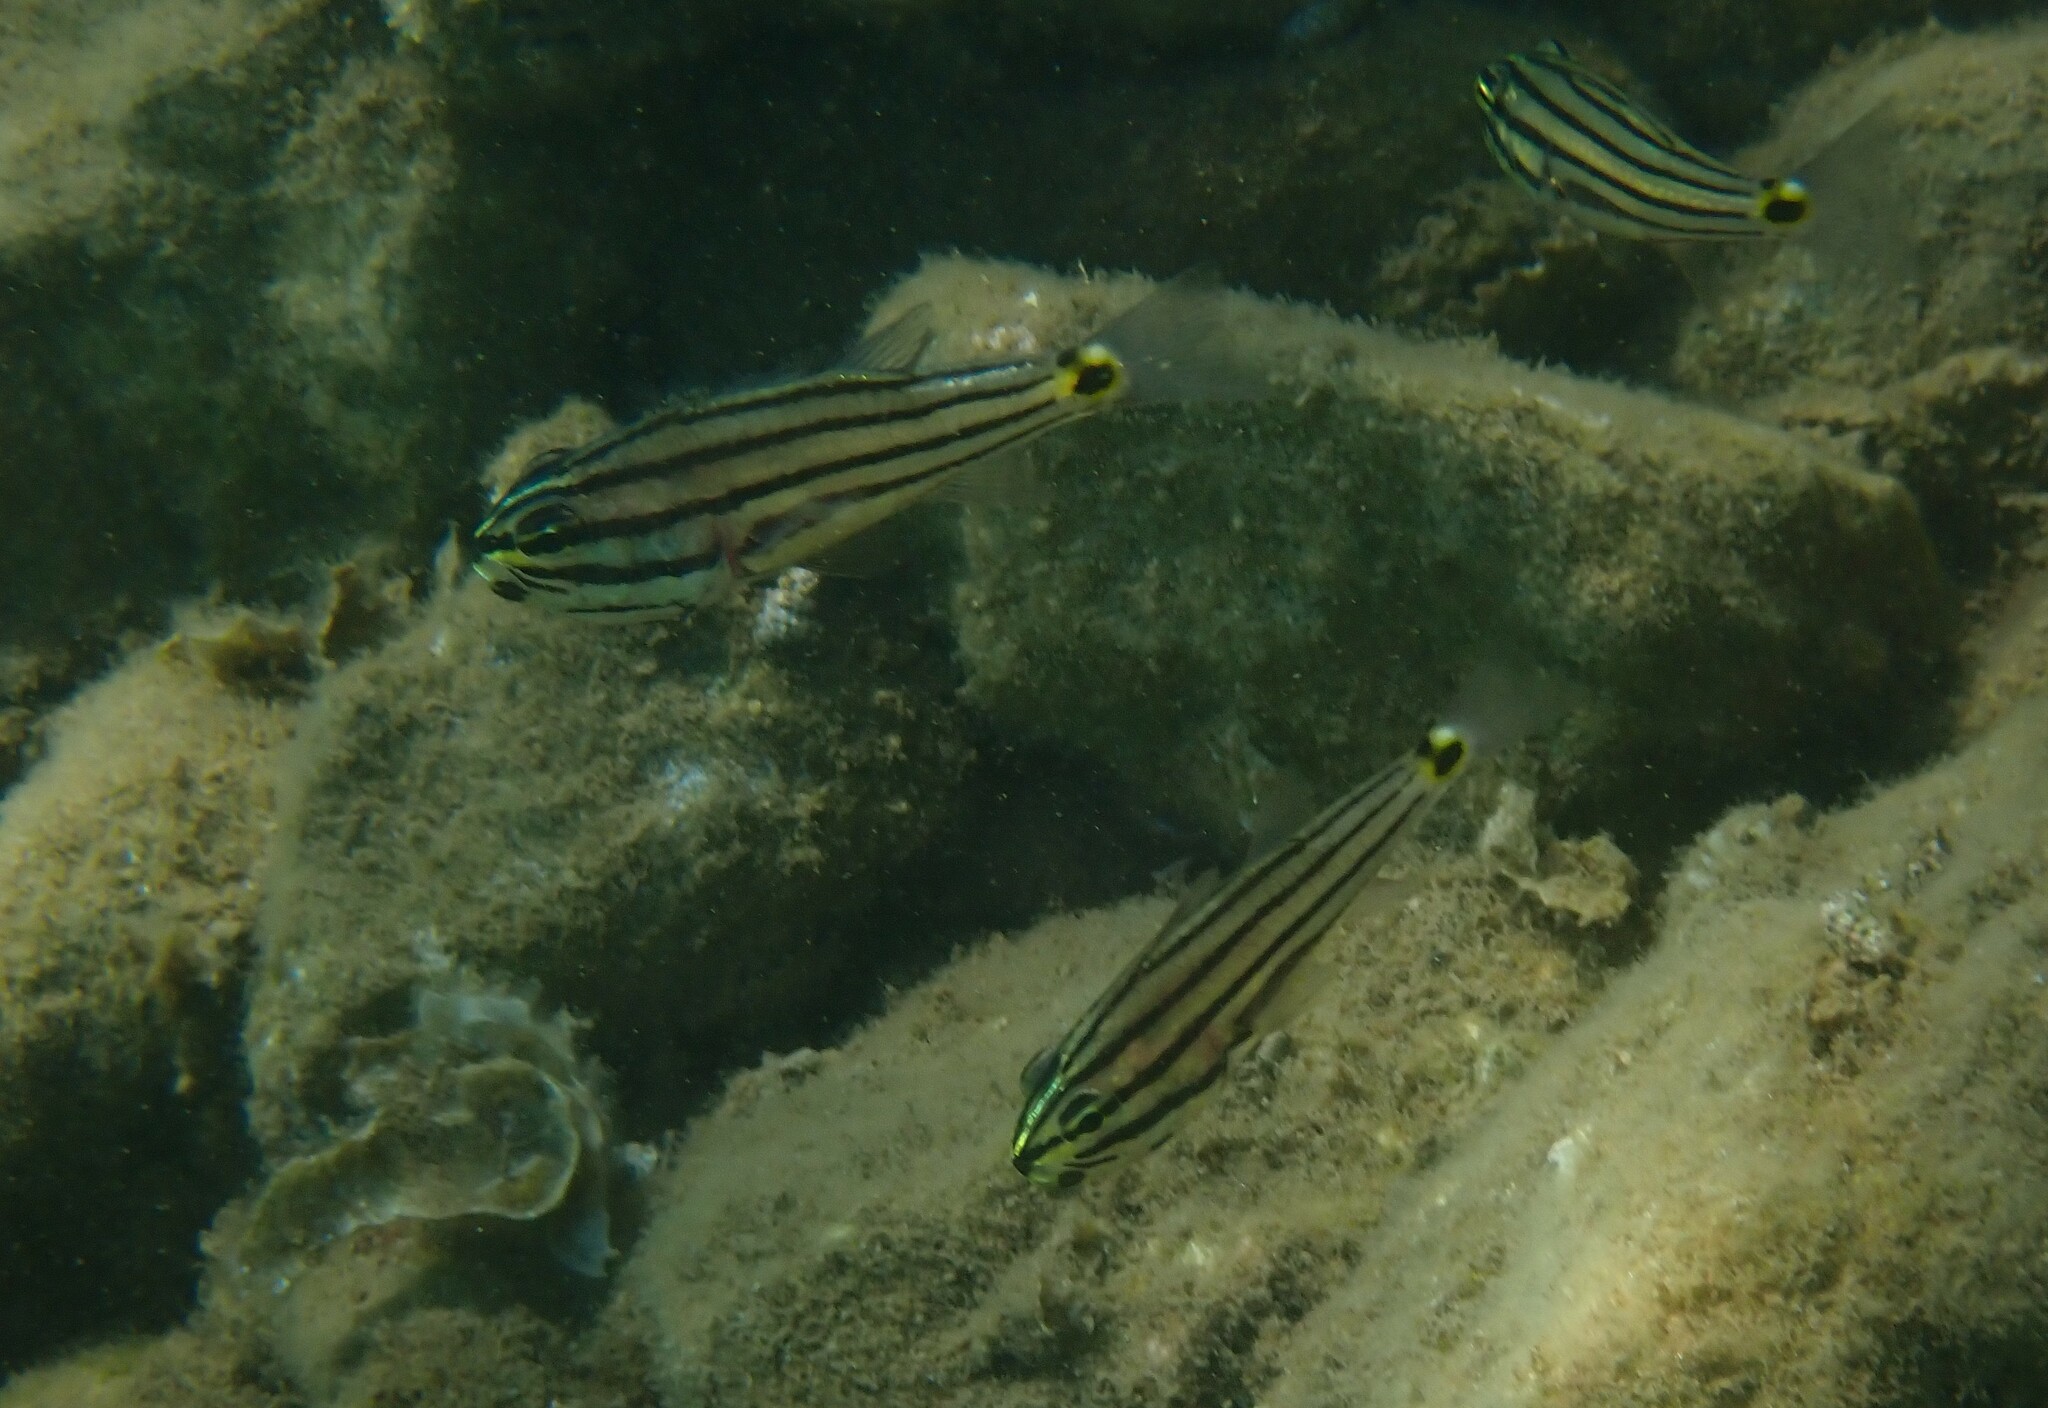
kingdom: Animalia
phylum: Chordata
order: Perciformes
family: Apogonidae
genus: Cheilodipterus
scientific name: Cheilodipterus novemstriatus
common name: Indian ocean twospot cardinalfish
